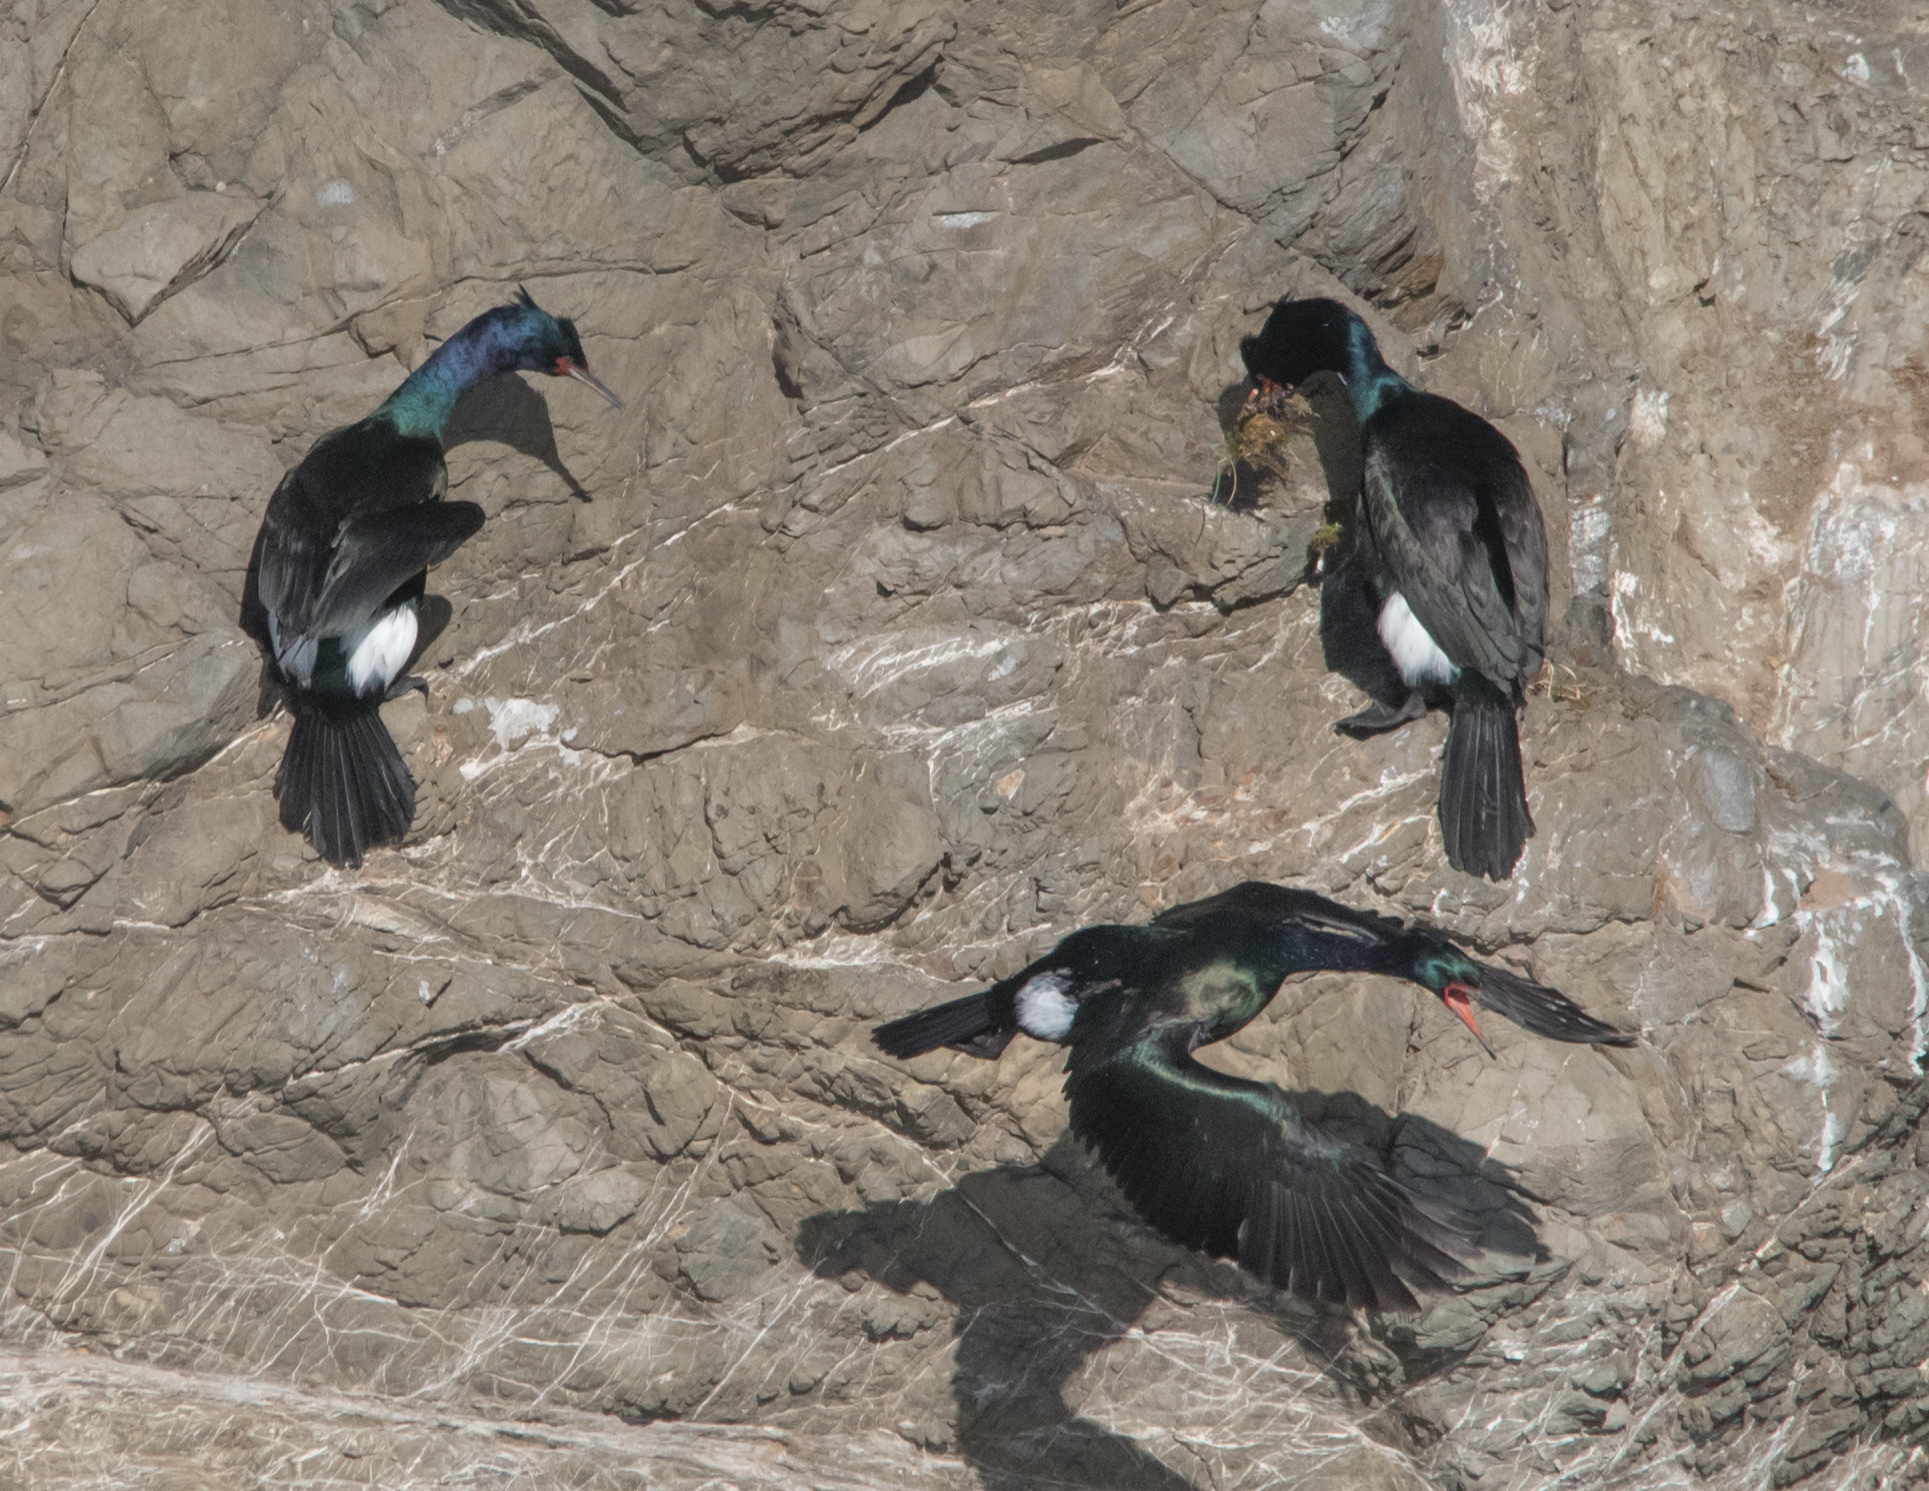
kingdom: Animalia
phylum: Chordata
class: Aves
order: Suliformes
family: Phalacrocoracidae
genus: Phalacrocorax
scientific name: Phalacrocorax pelagicus
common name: Pelagic cormorant
